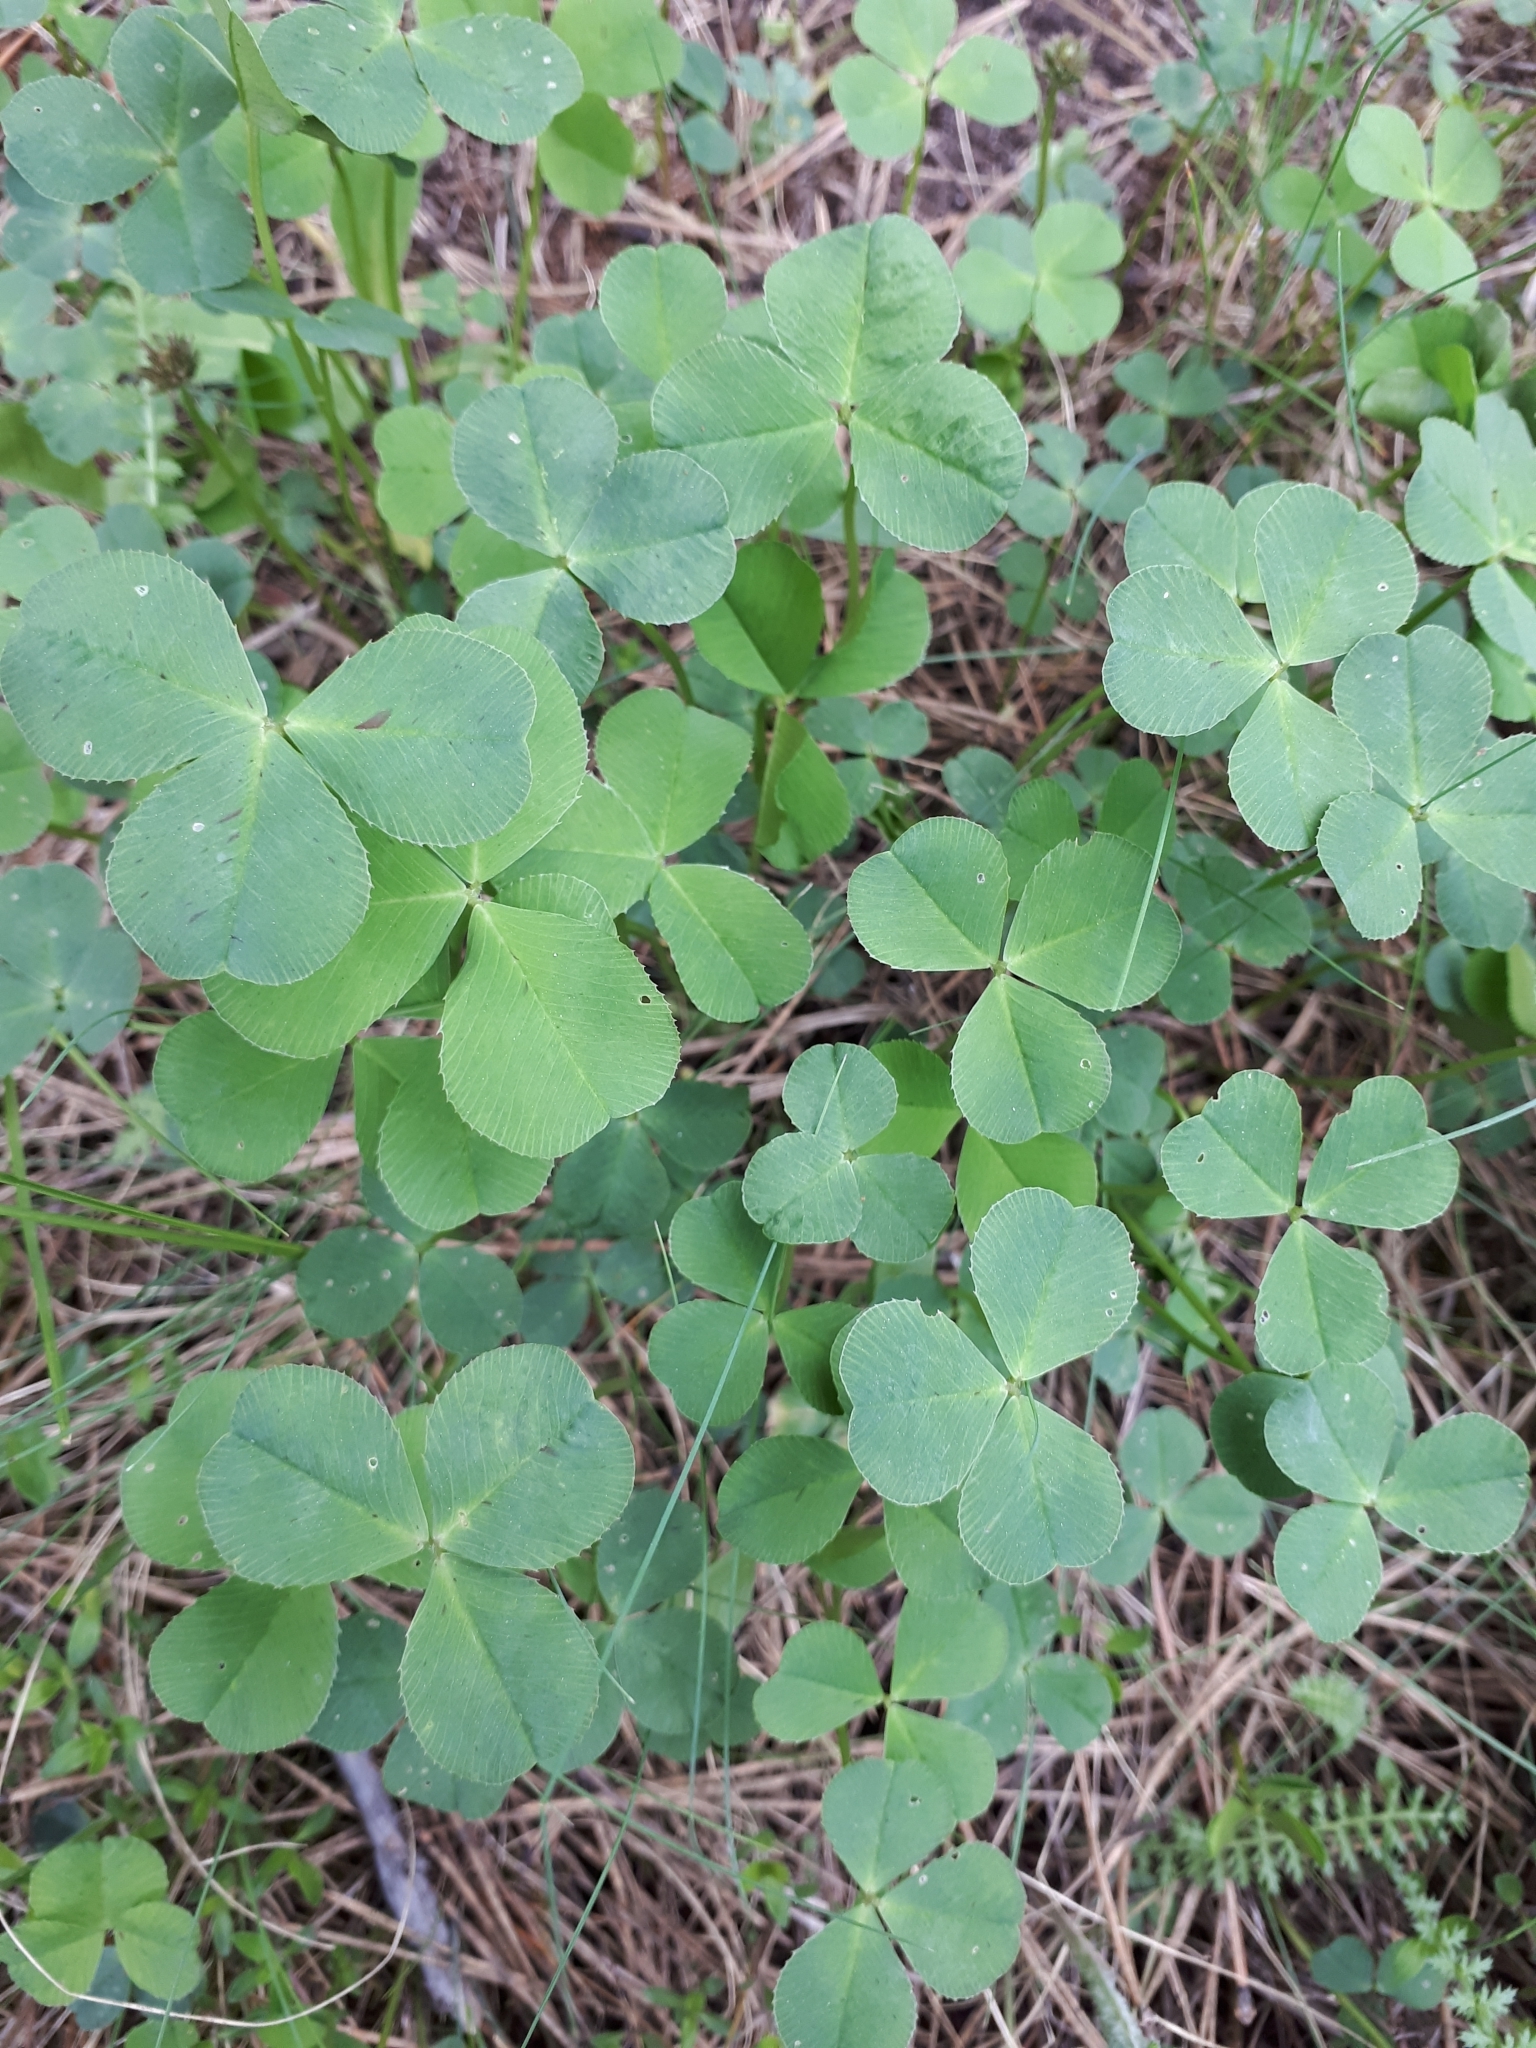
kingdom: Plantae
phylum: Tracheophyta
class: Magnoliopsida
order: Fabales
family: Fabaceae
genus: Trifolium
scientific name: Trifolium repens
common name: White clover
